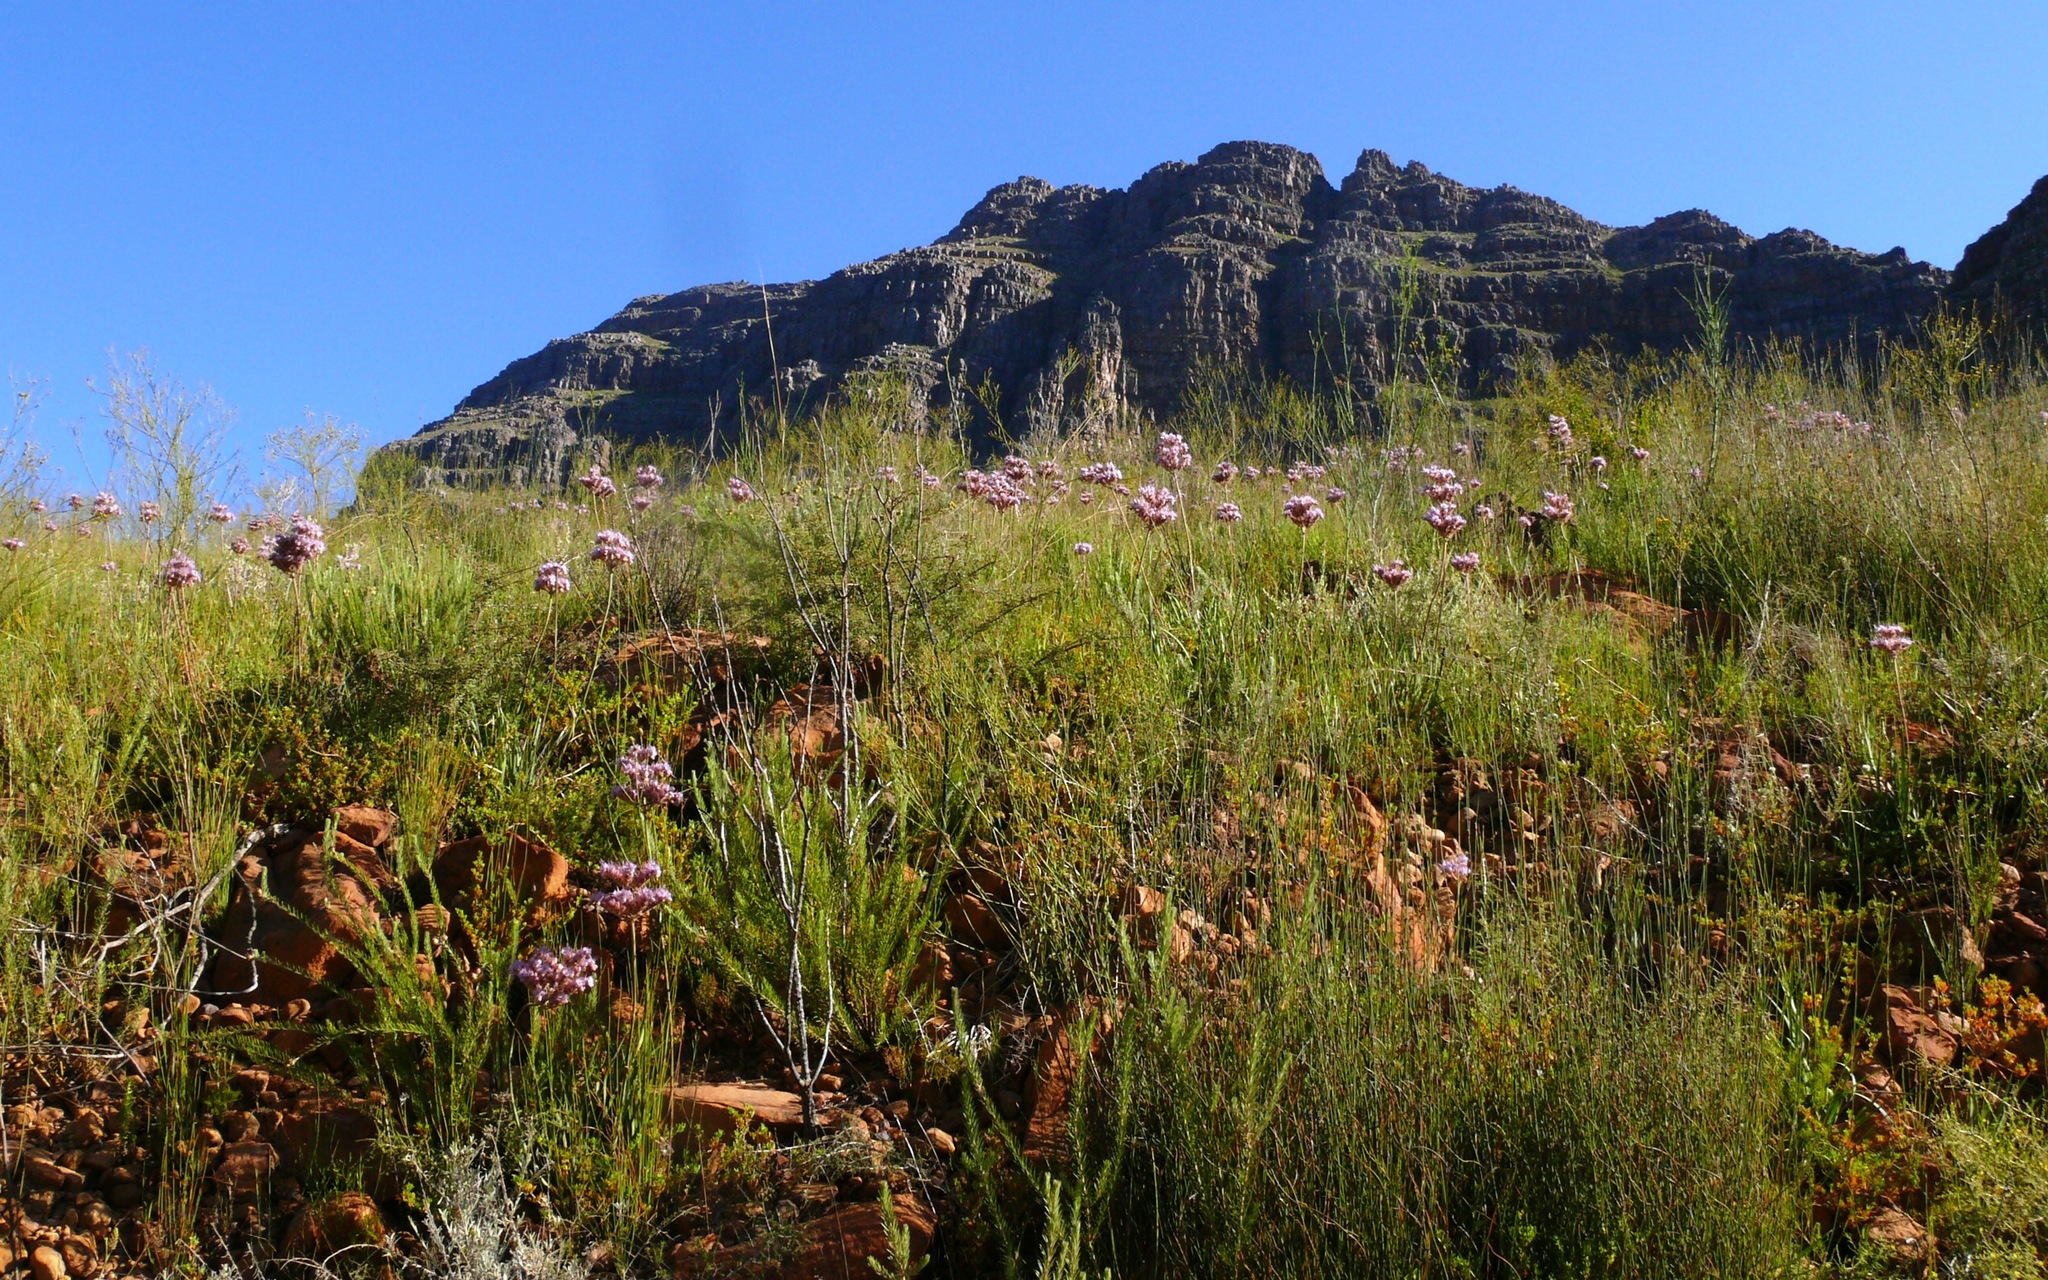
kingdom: Plantae
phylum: Tracheophyta
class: Liliopsida
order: Commelinales
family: Haemodoraceae
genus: Dilatris
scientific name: Dilatris ixioides
